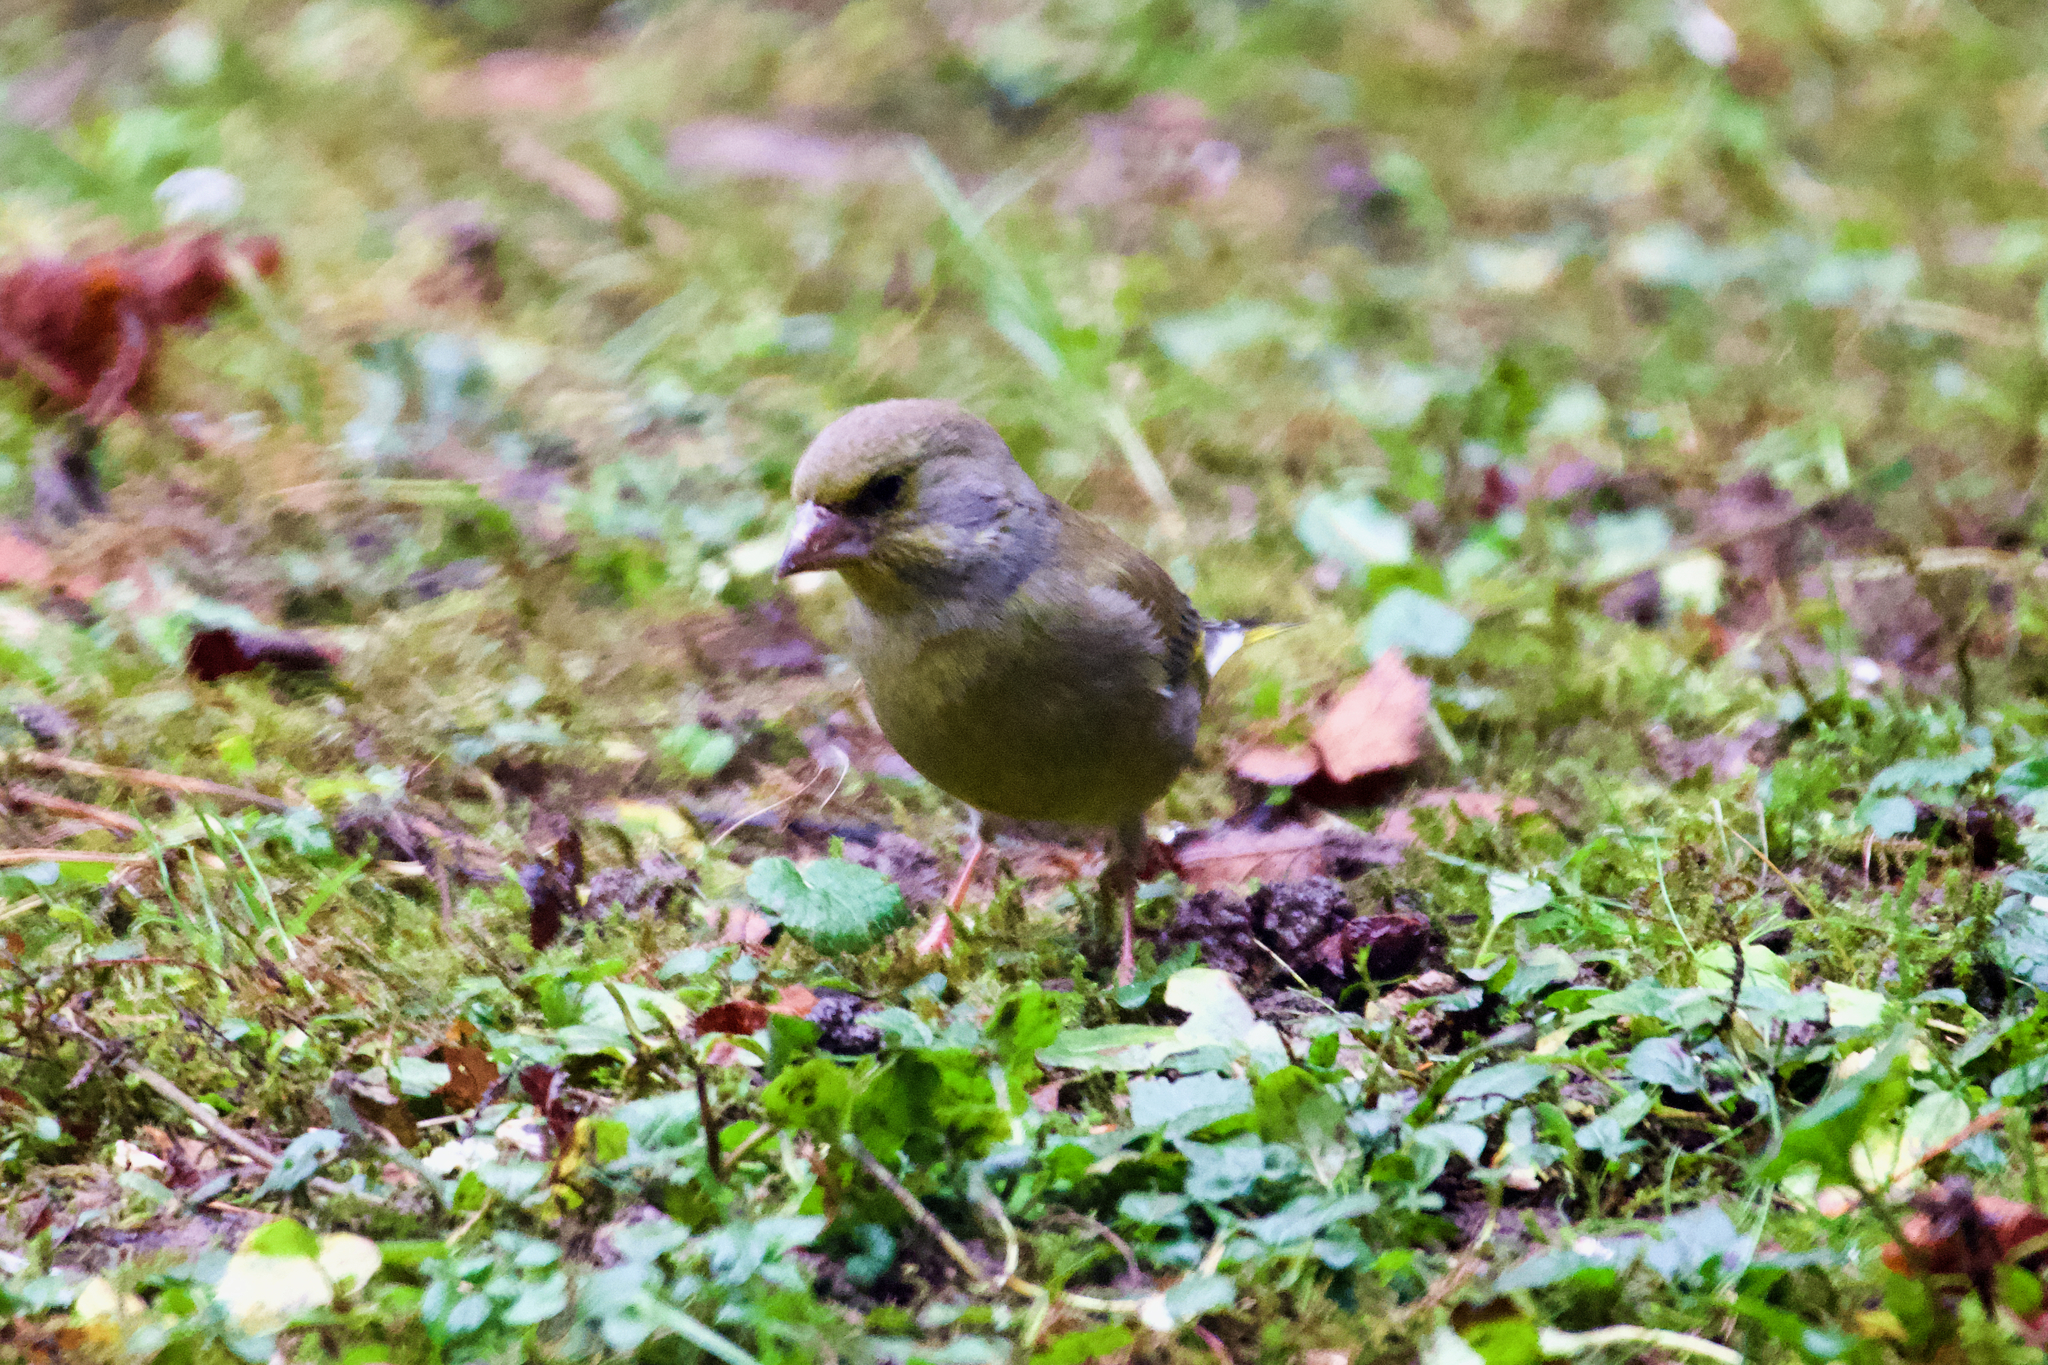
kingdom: Plantae
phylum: Tracheophyta
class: Liliopsida
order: Poales
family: Poaceae
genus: Chloris
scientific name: Chloris chloris
